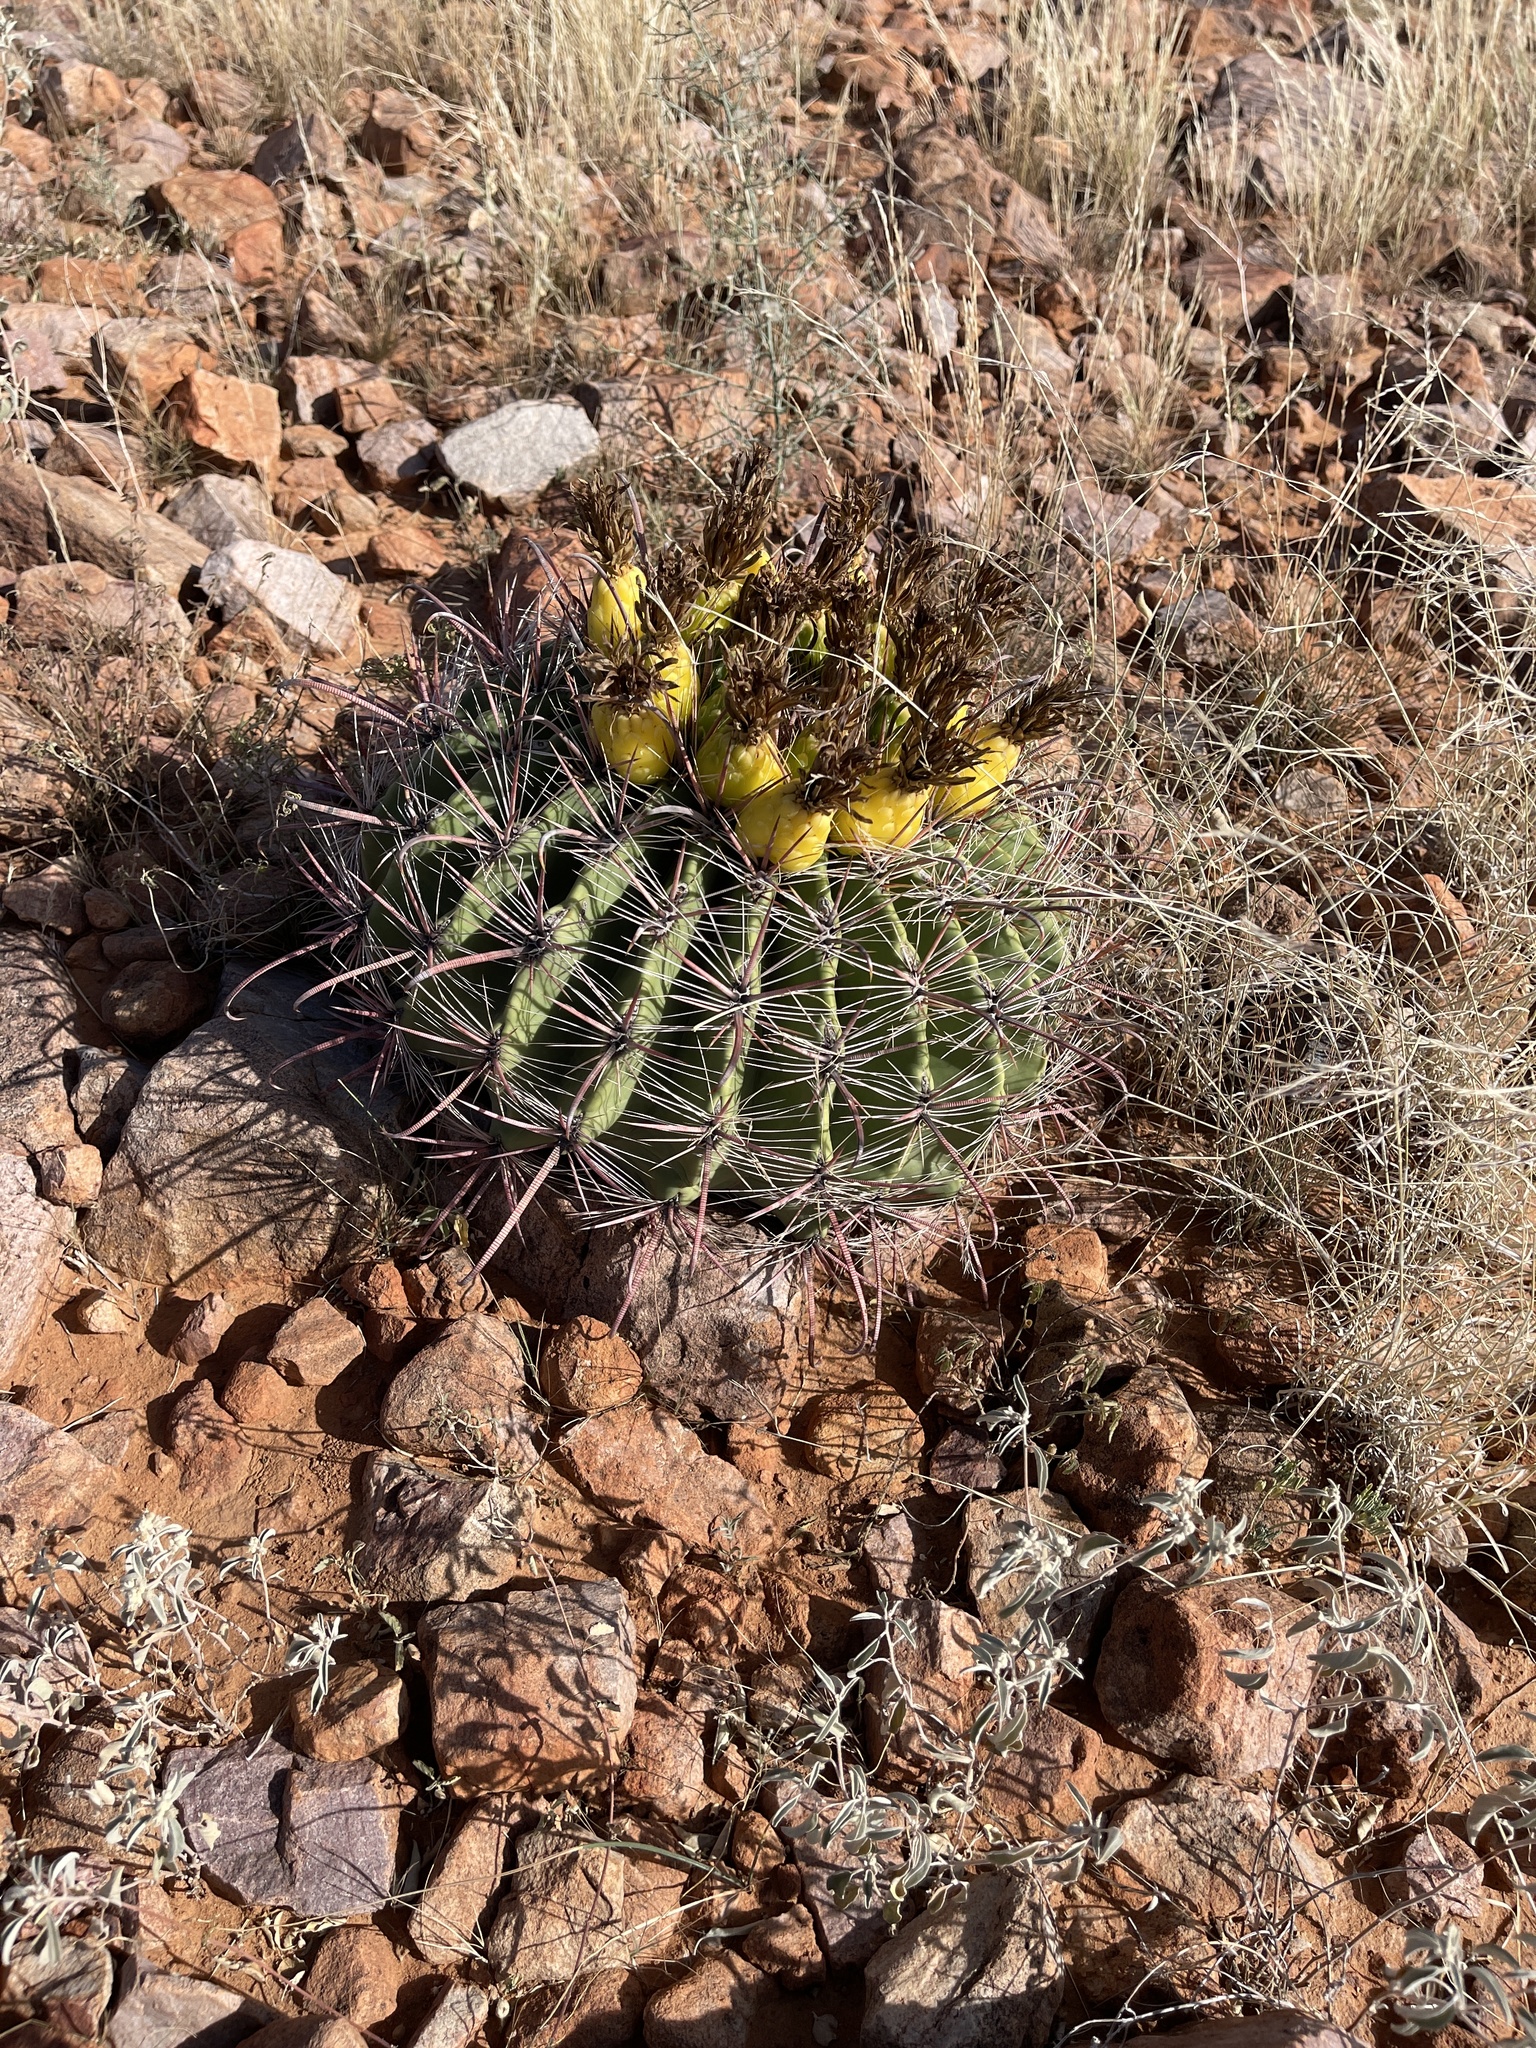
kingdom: Plantae
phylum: Tracheophyta
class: Magnoliopsida
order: Caryophyllales
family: Cactaceae
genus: Ferocactus
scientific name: Ferocactus wislizeni
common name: Candy barrel cactus
